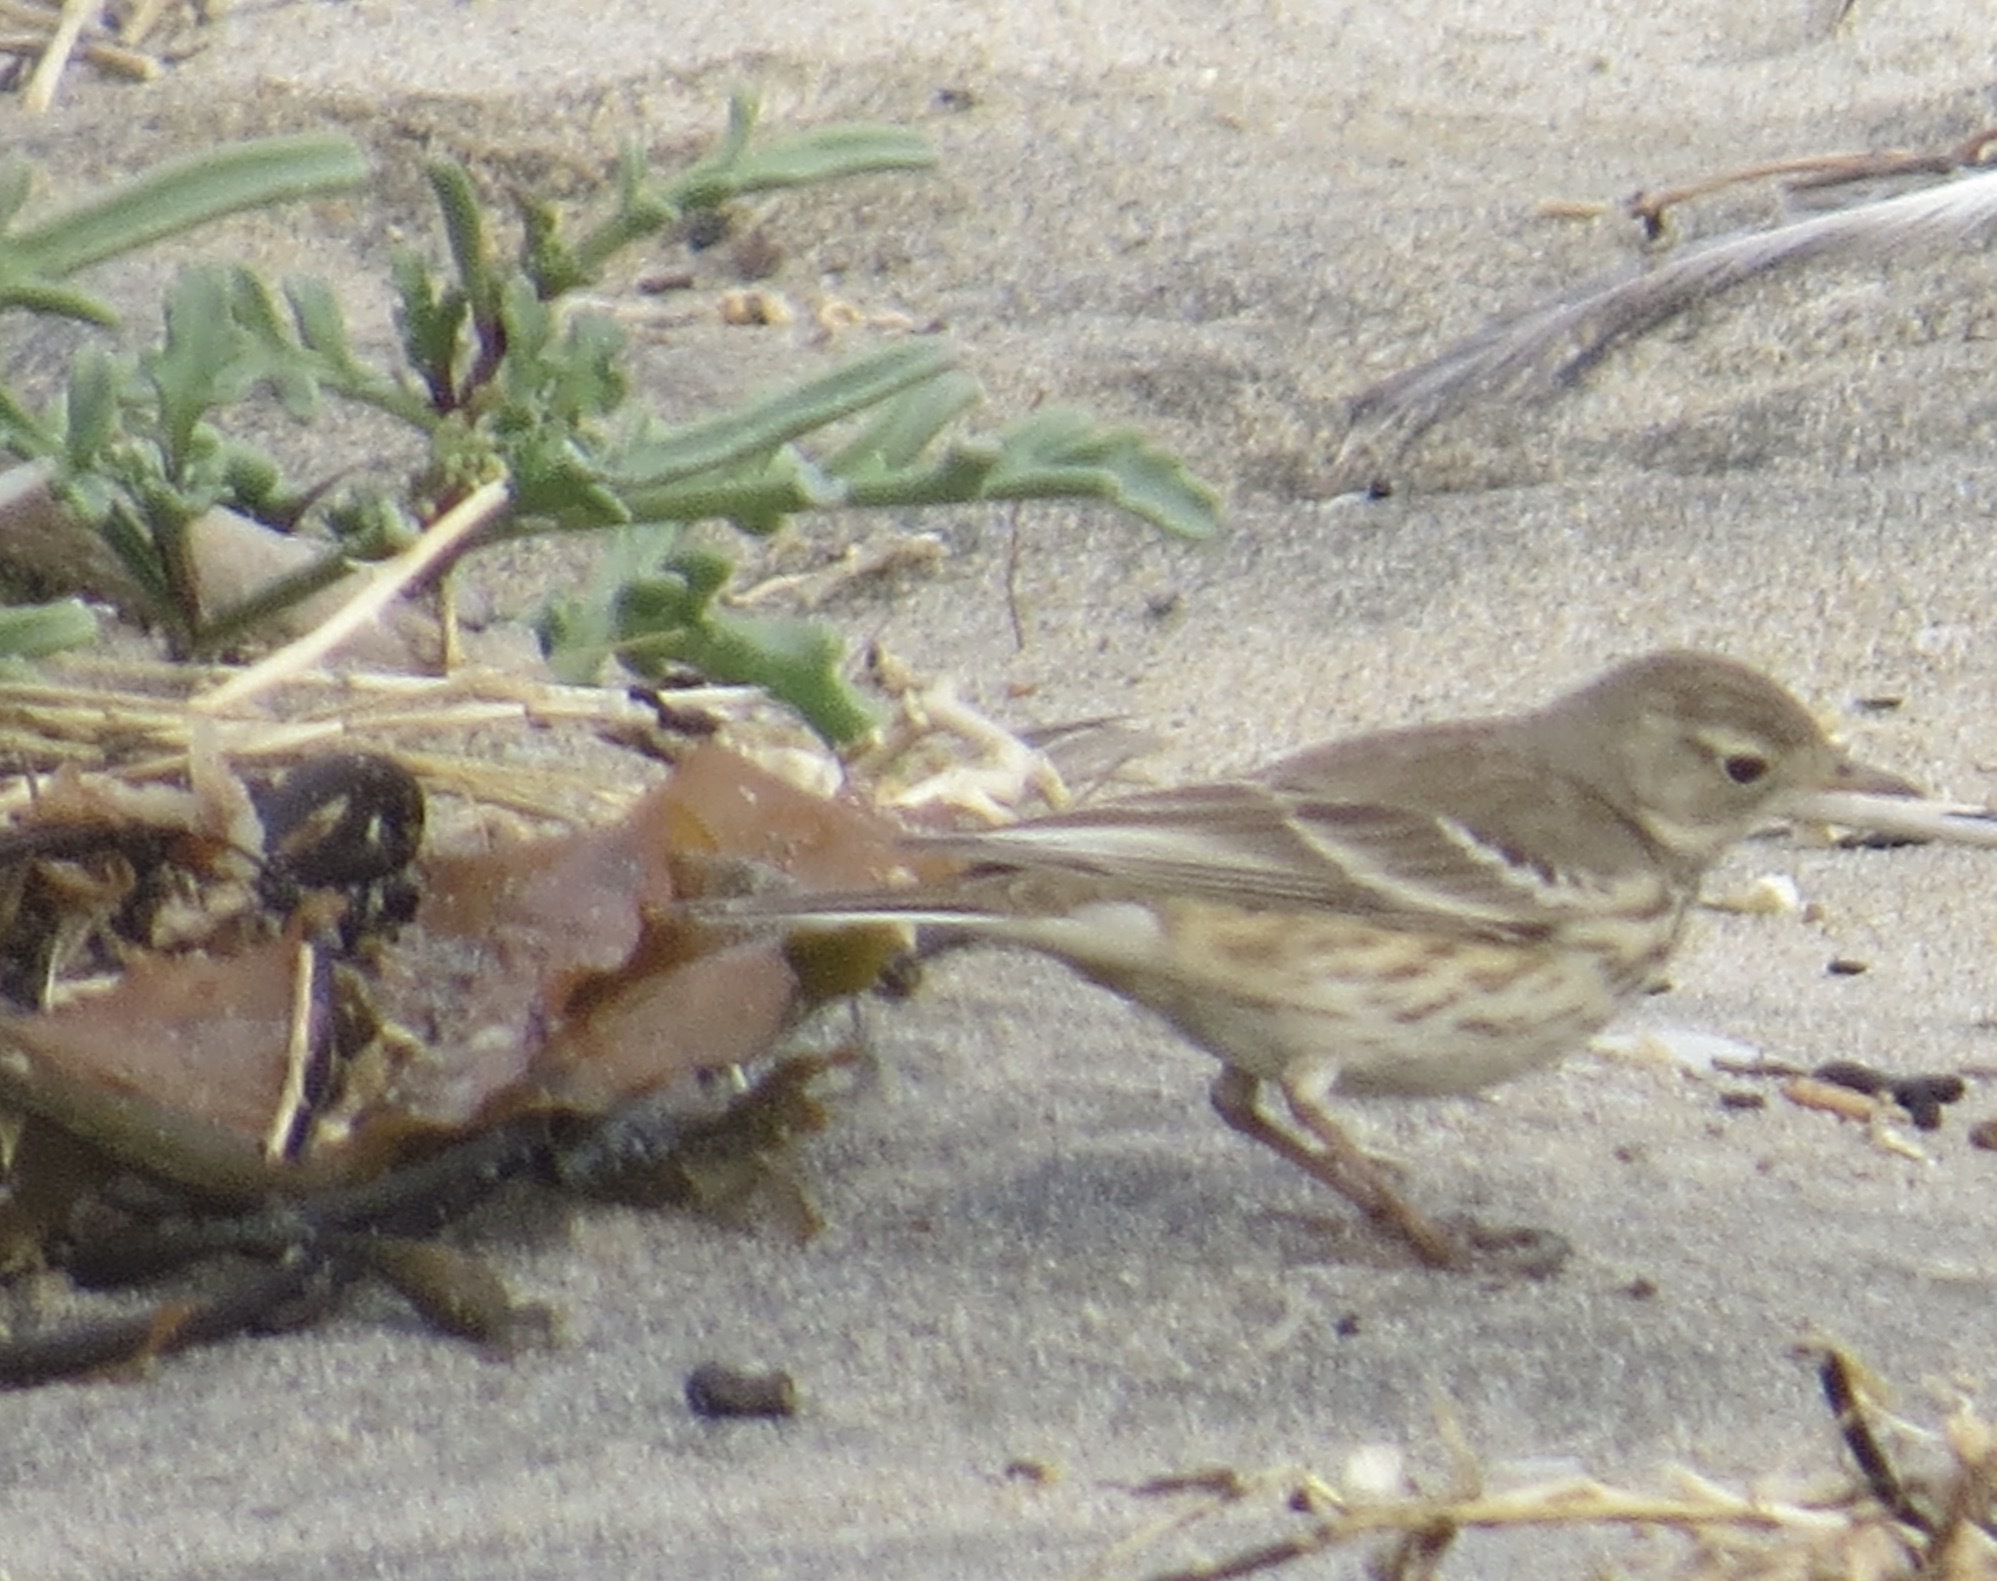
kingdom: Animalia
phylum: Chordata
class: Aves
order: Passeriformes
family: Motacillidae
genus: Anthus
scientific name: Anthus rubescens
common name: Buff-bellied pipit
